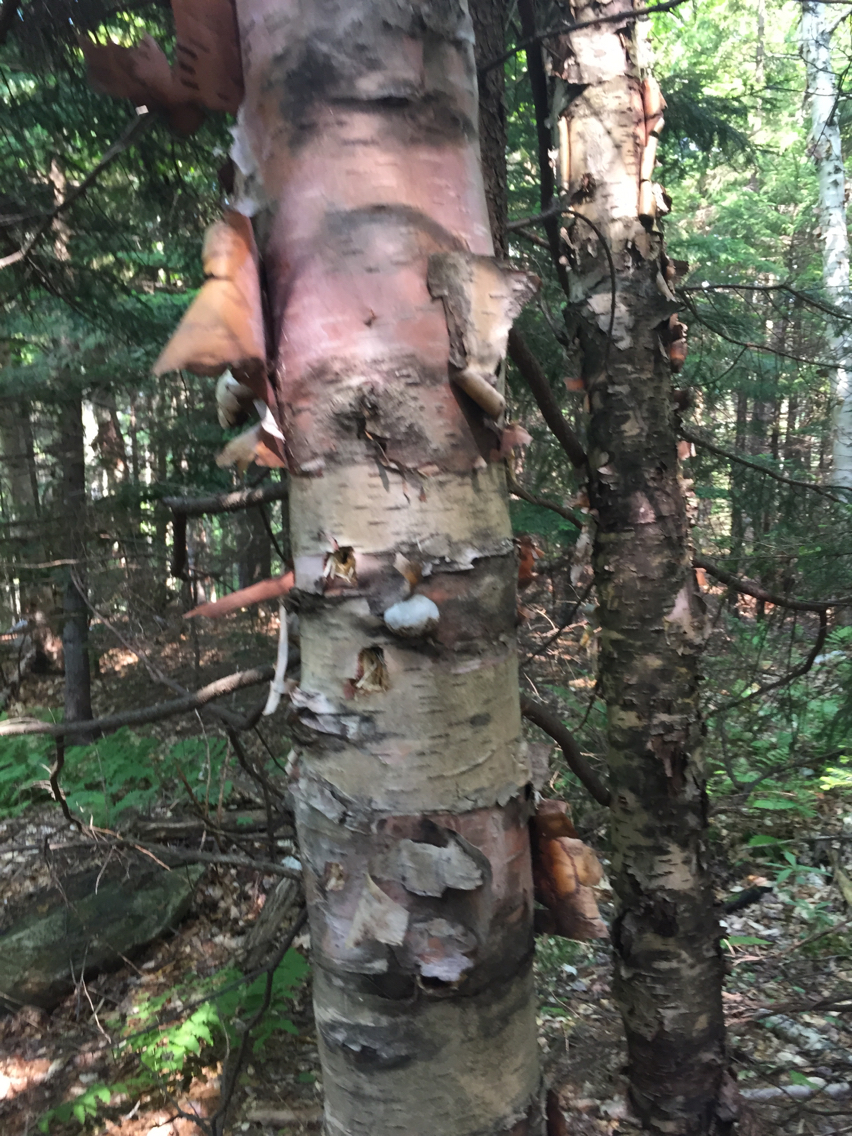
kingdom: Plantae
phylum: Tracheophyta
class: Magnoliopsida
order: Fagales
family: Betulaceae
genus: Betula
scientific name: Betula cordifolia
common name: Mountain white birch
